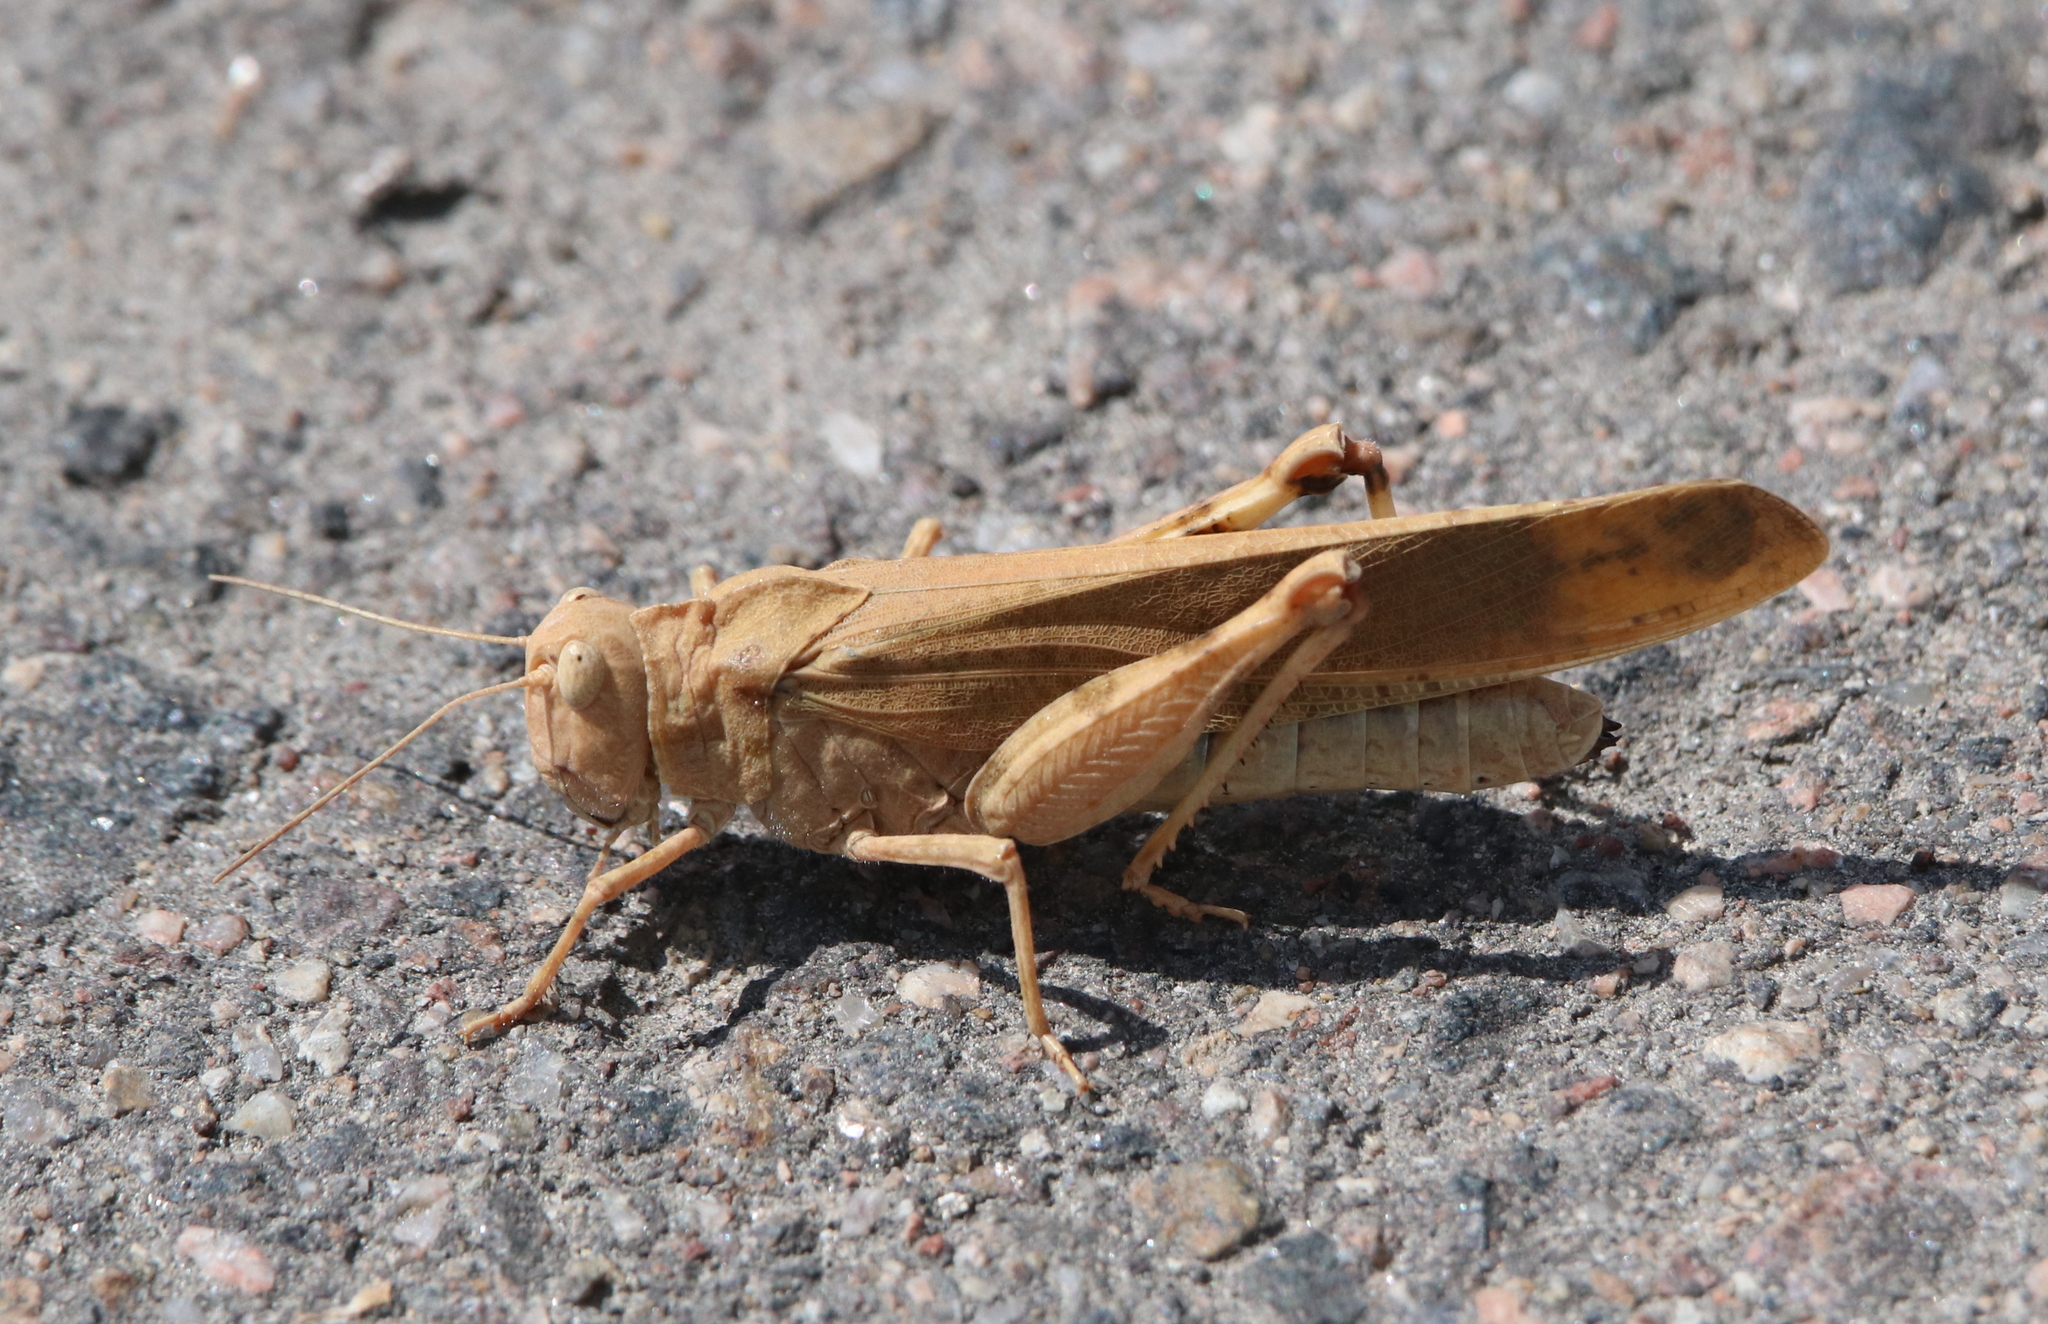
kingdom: Animalia
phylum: Arthropoda
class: Insecta
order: Orthoptera
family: Acrididae
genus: Dissosteira
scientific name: Dissosteira carolina
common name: Carolina grasshopper
